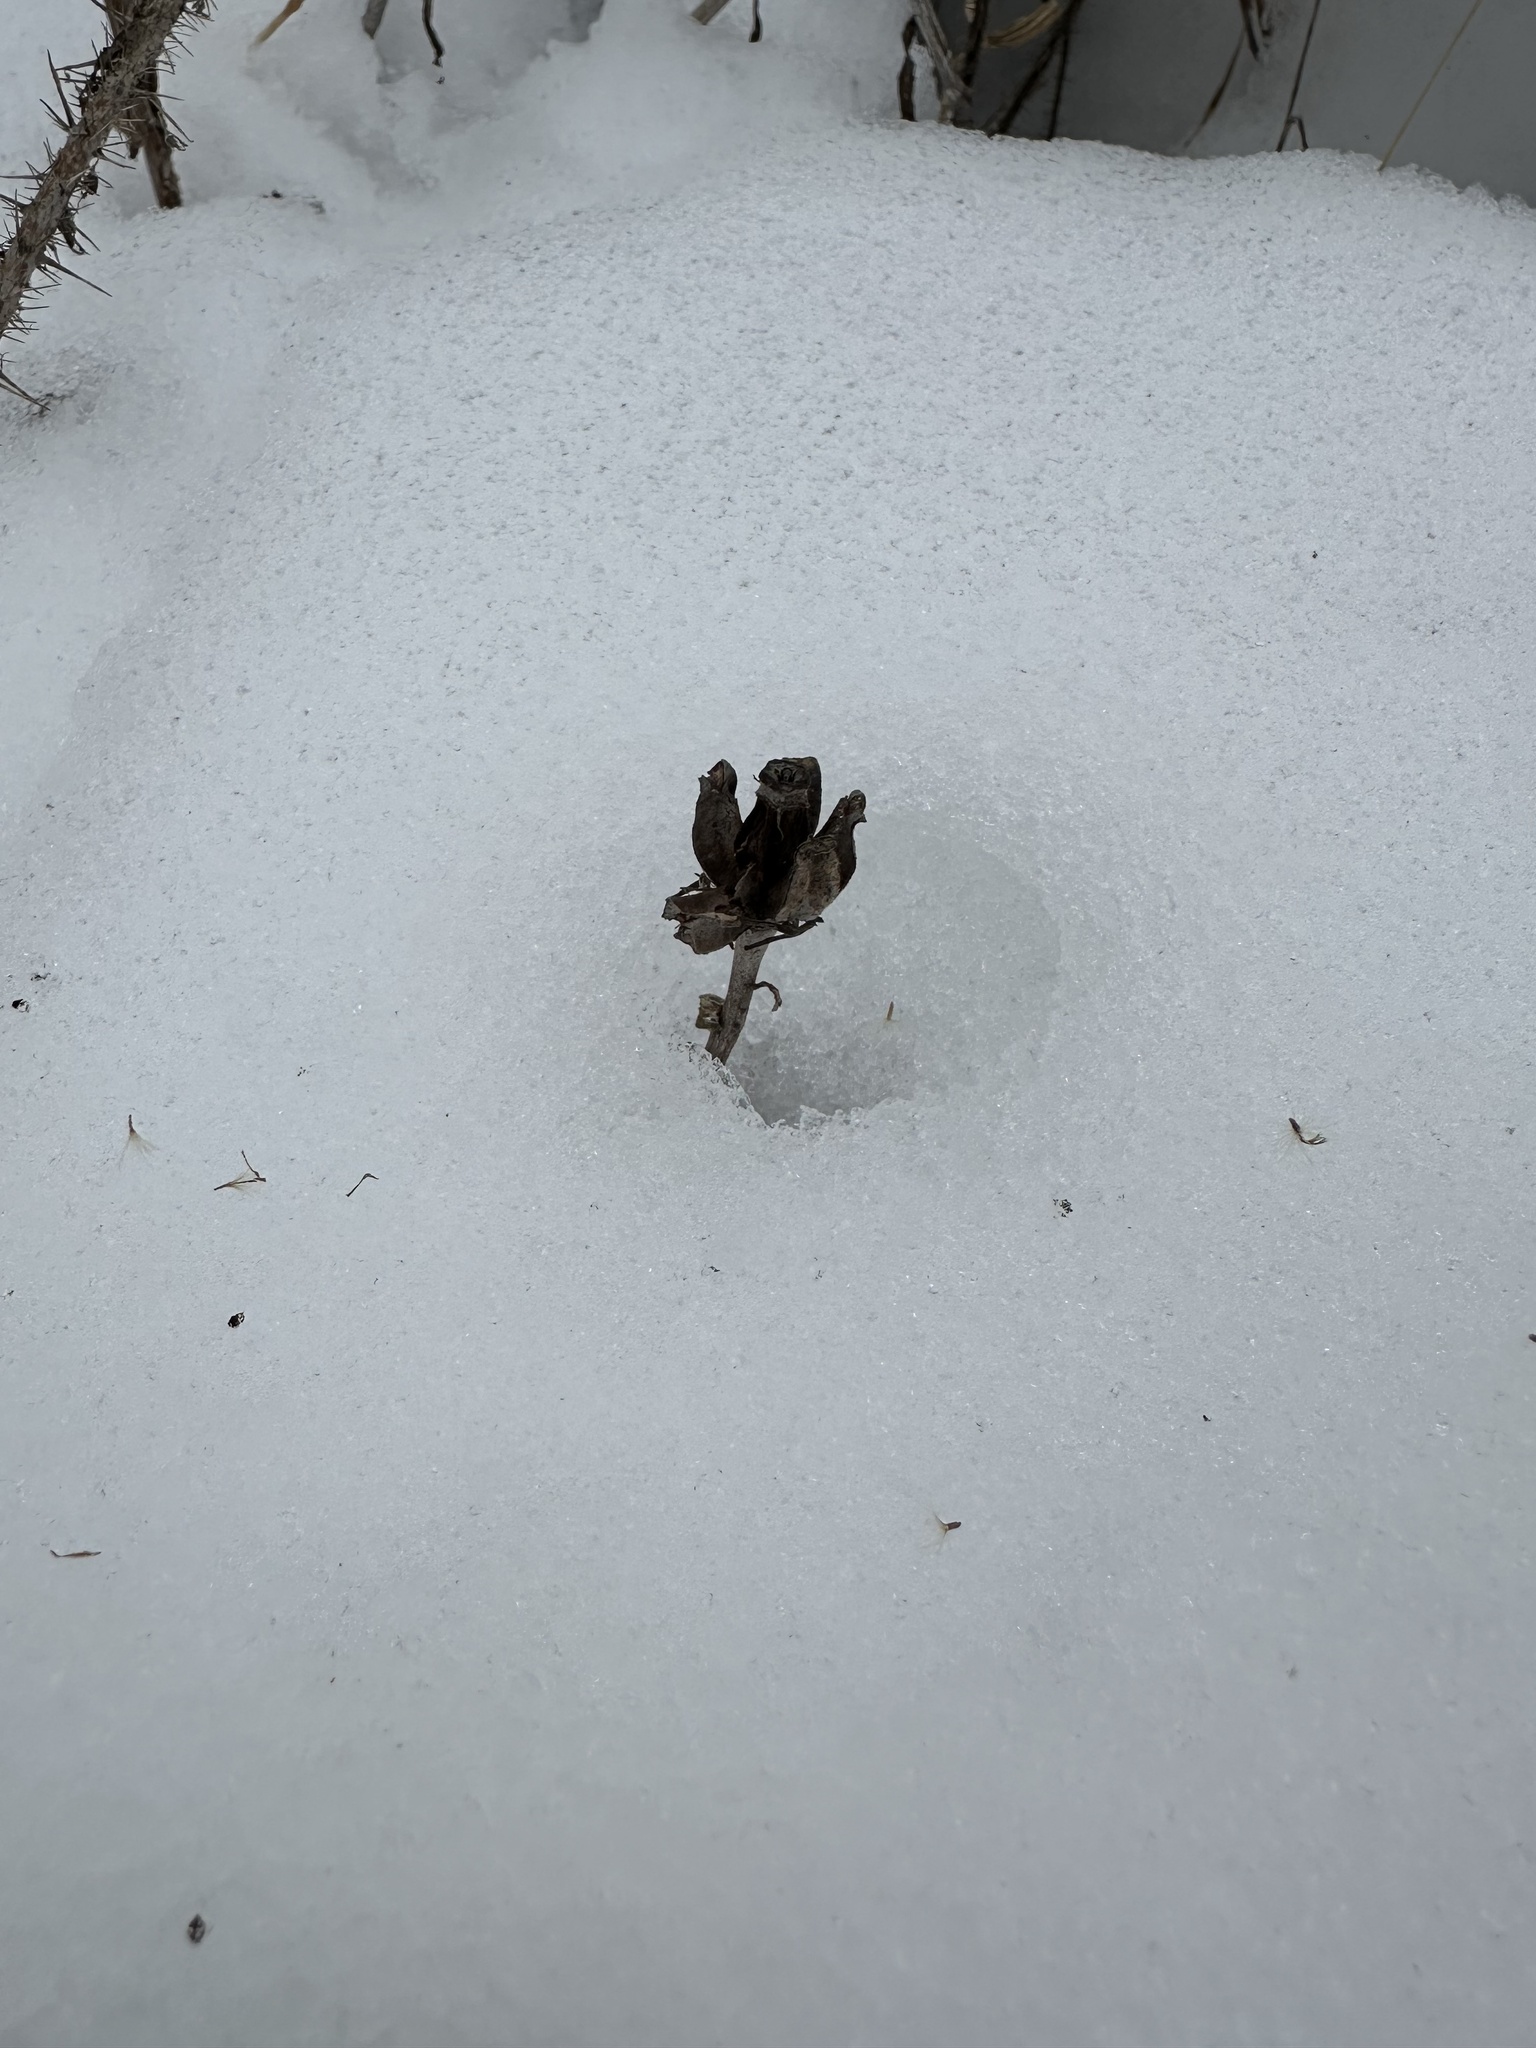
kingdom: Plantae
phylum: Tracheophyta
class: Magnoliopsida
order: Ericales
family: Ericaceae
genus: Monotropa
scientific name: Monotropa uniflora
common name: Convulsion root
